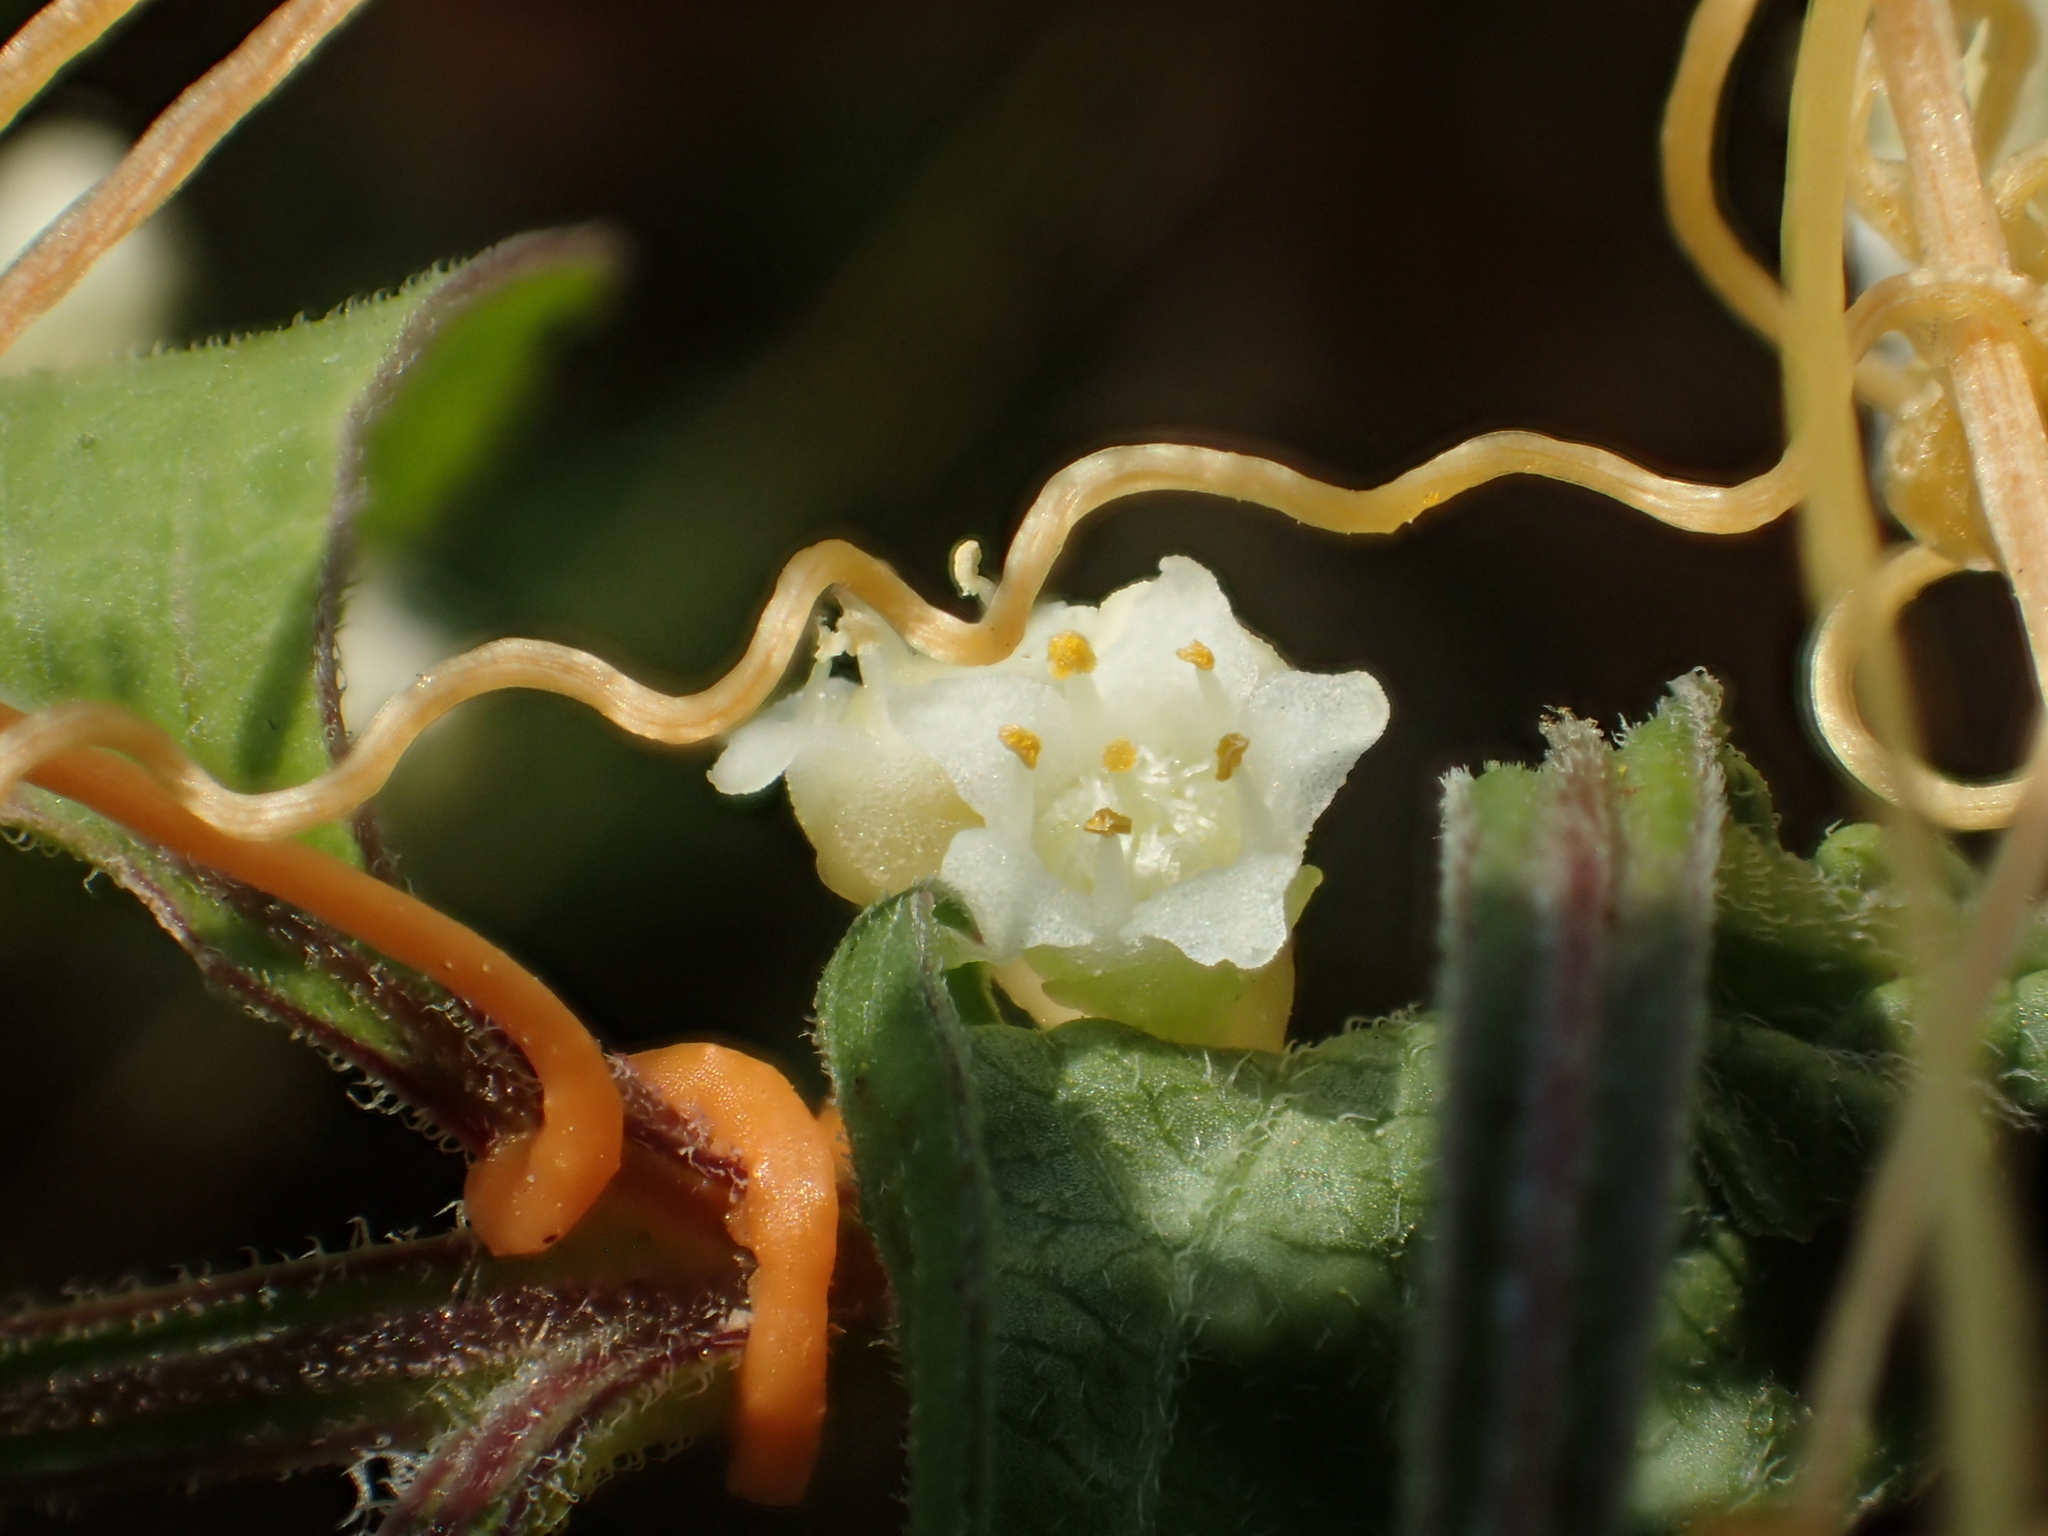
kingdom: Plantae
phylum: Tracheophyta
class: Magnoliopsida
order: Solanales
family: Convolvulaceae
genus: Cuscuta
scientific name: Cuscuta campestris
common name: Yellow dodder
